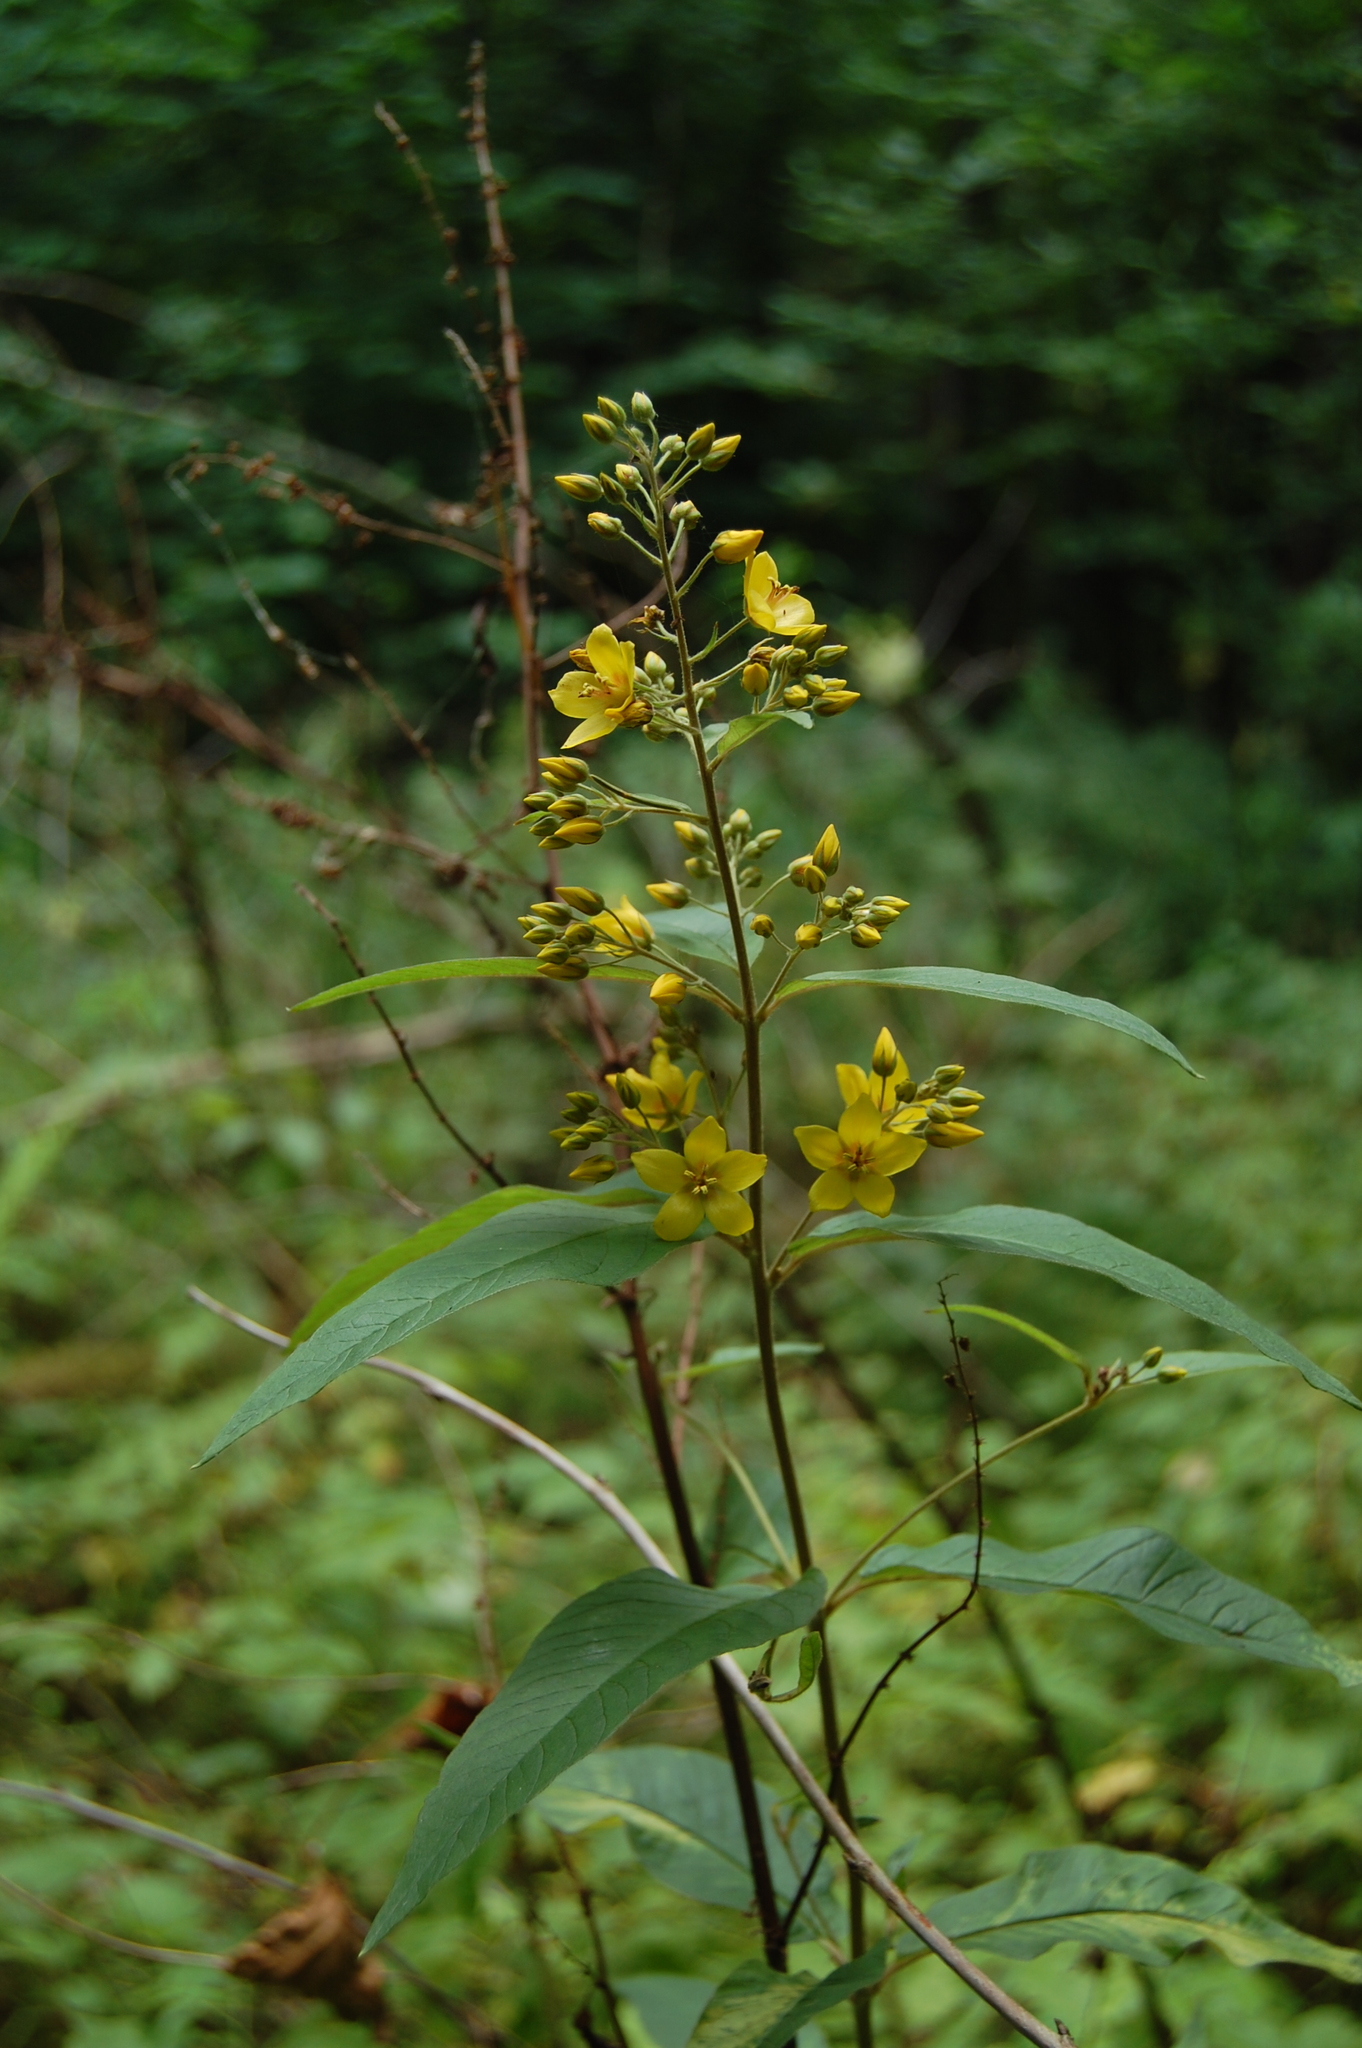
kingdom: Plantae
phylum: Tracheophyta
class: Magnoliopsida
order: Ericales
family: Primulaceae
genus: Lysimachia
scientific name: Lysimachia vulgaris
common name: Yellow loosestrife
